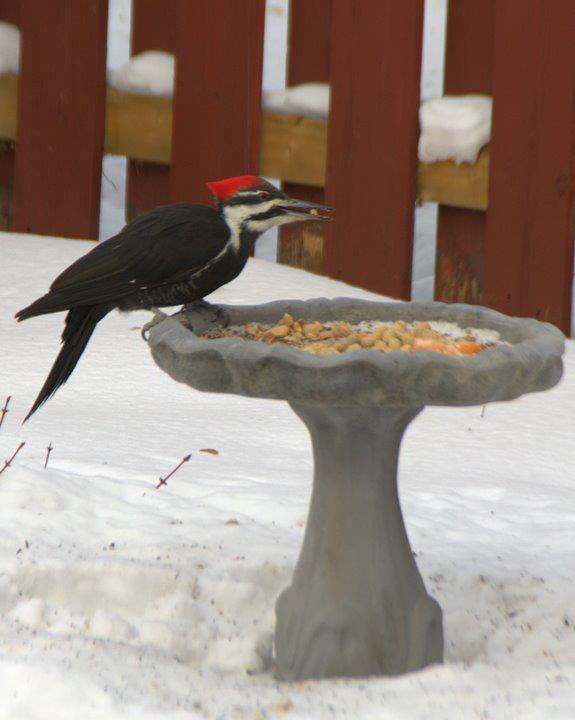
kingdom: Animalia
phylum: Chordata
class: Aves
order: Piciformes
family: Picidae
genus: Dryocopus
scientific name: Dryocopus pileatus
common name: Pileated woodpecker
